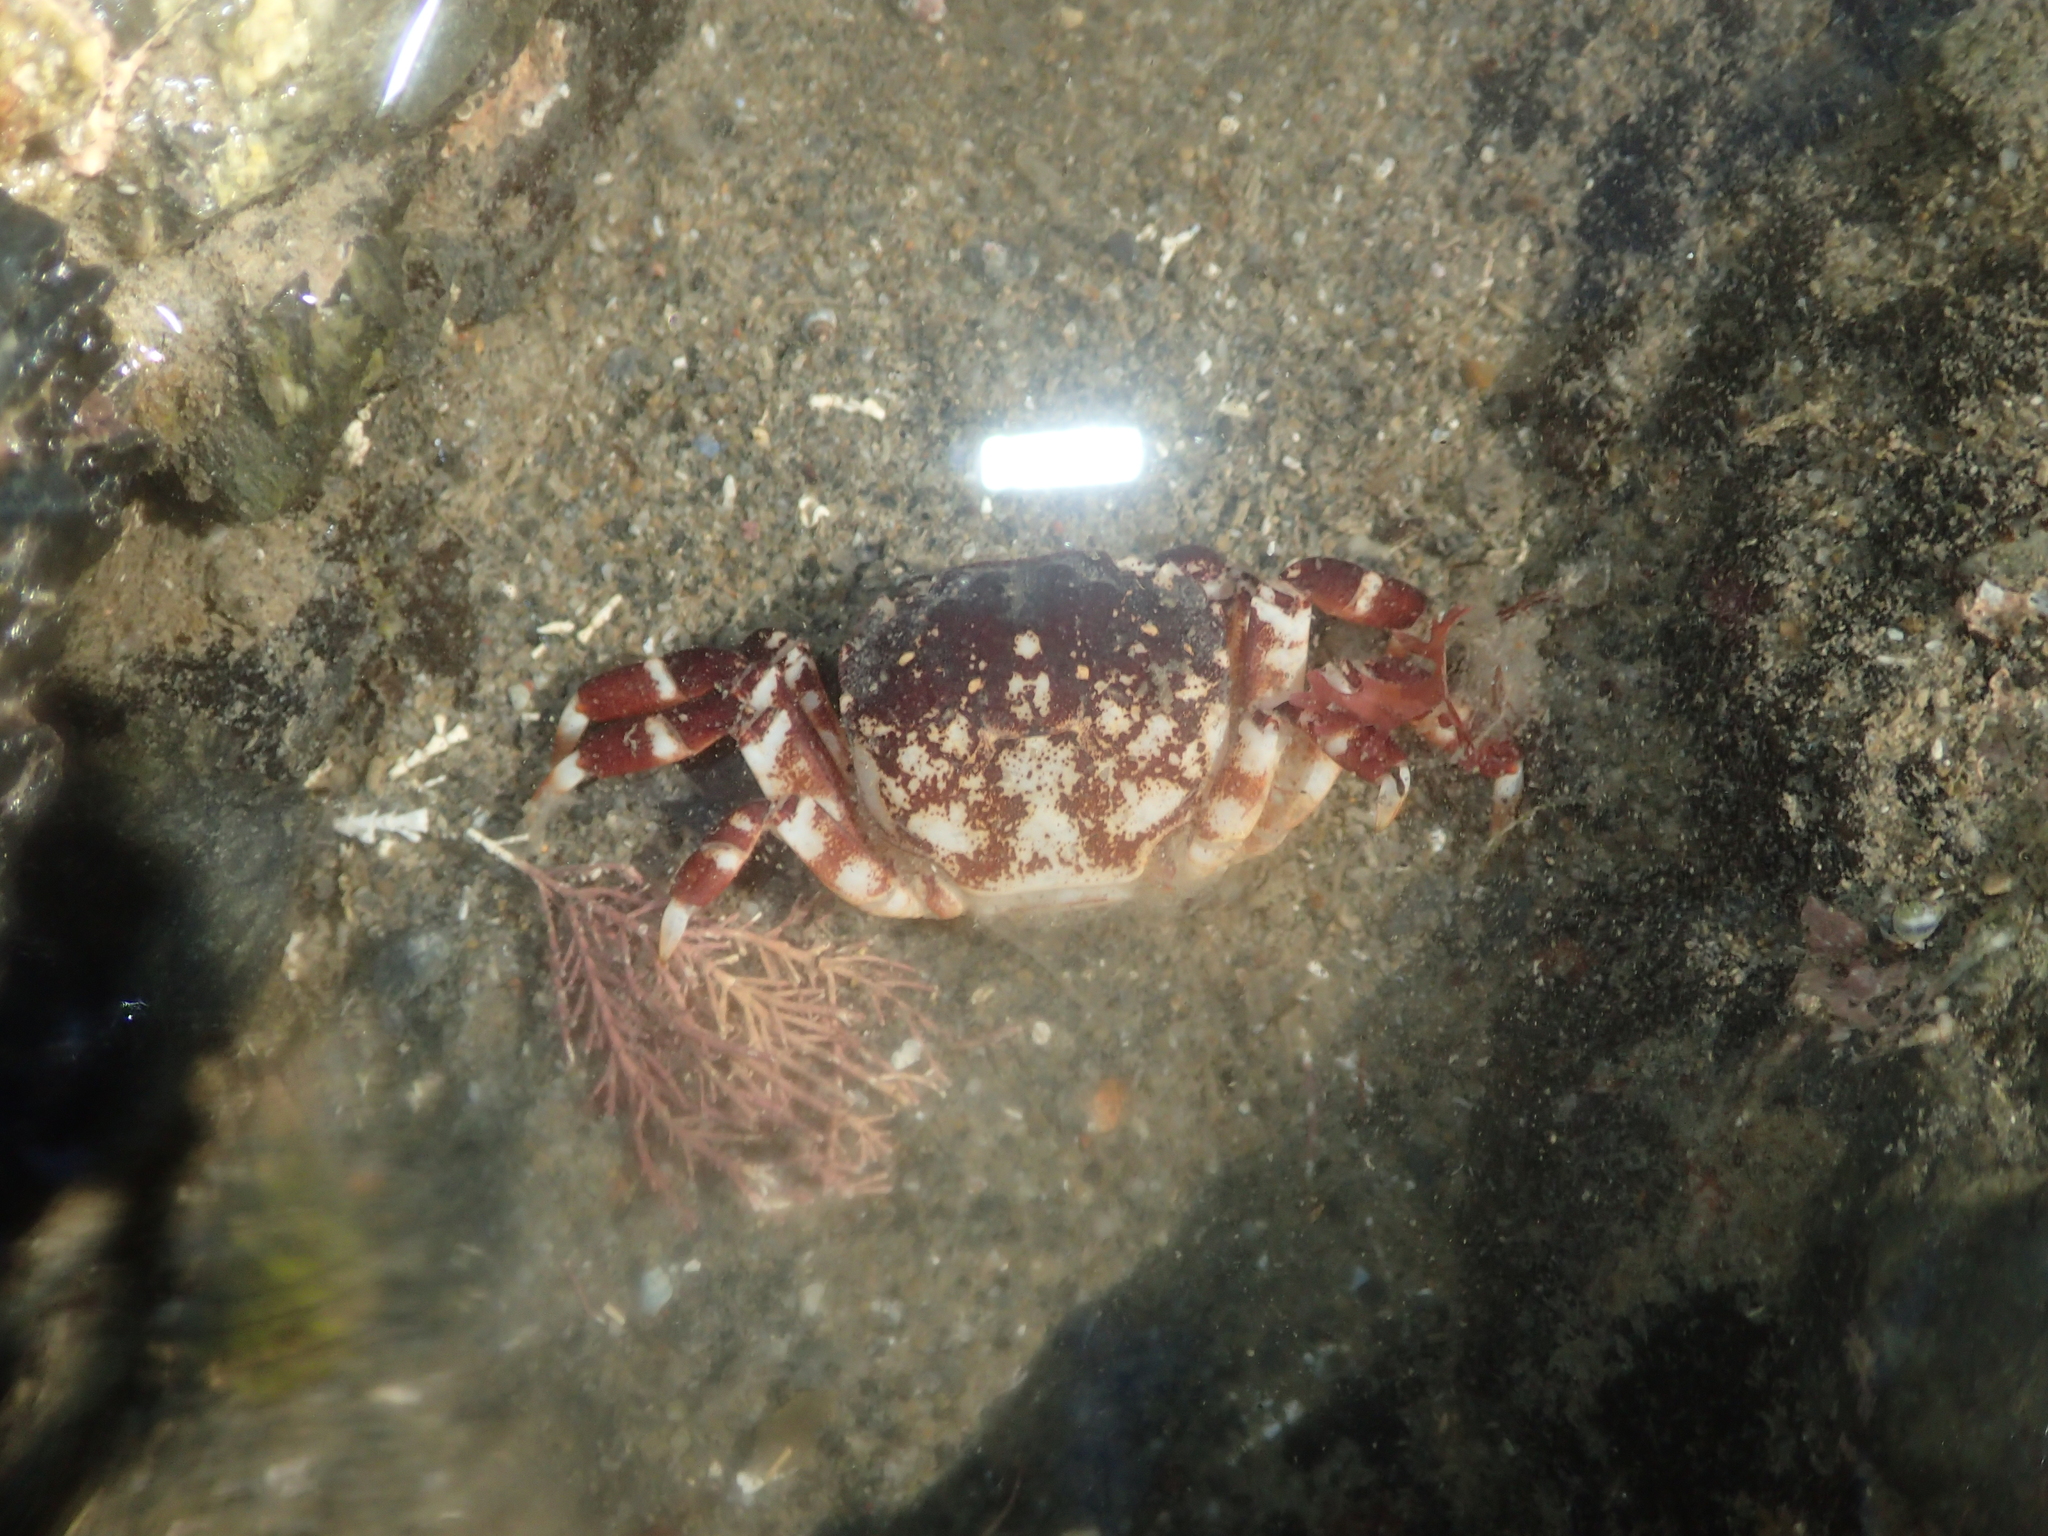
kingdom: Animalia
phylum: Arthropoda
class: Malacostraca
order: Decapoda
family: Varunidae
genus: Hemigrapsus
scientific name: Hemigrapsus sexdentatus
